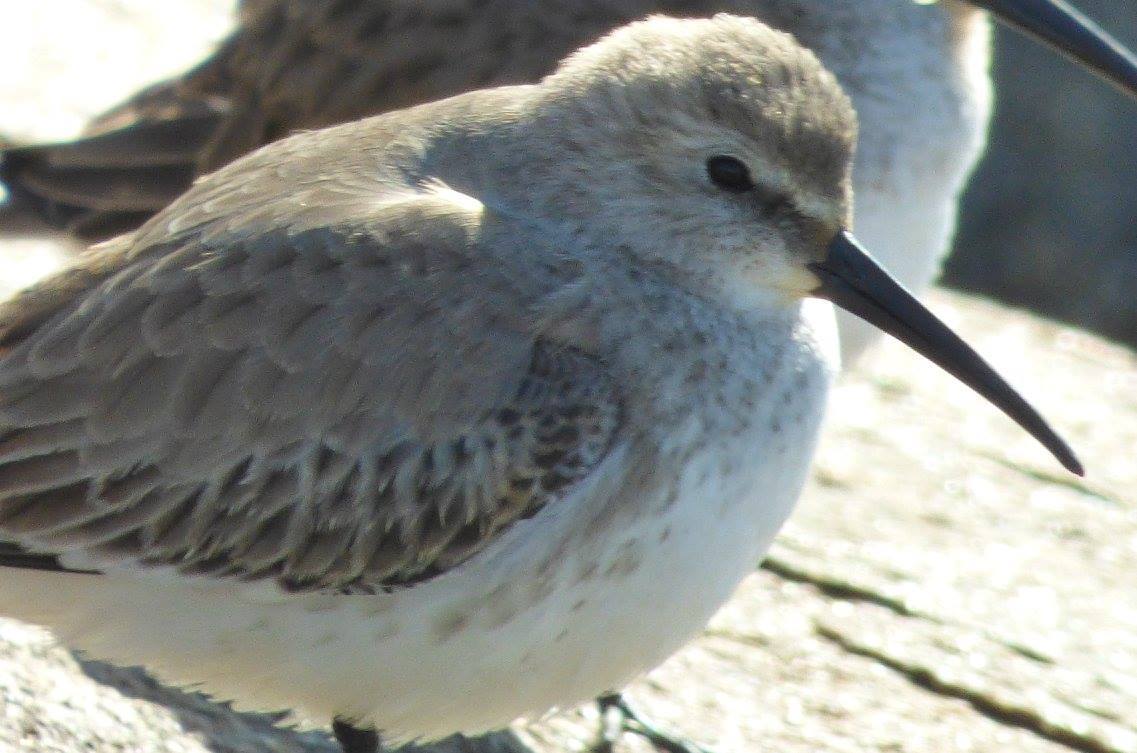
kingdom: Animalia
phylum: Chordata
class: Aves
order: Charadriiformes
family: Scolopacidae
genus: Calidris
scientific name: Calidris alpina
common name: Dunlin
